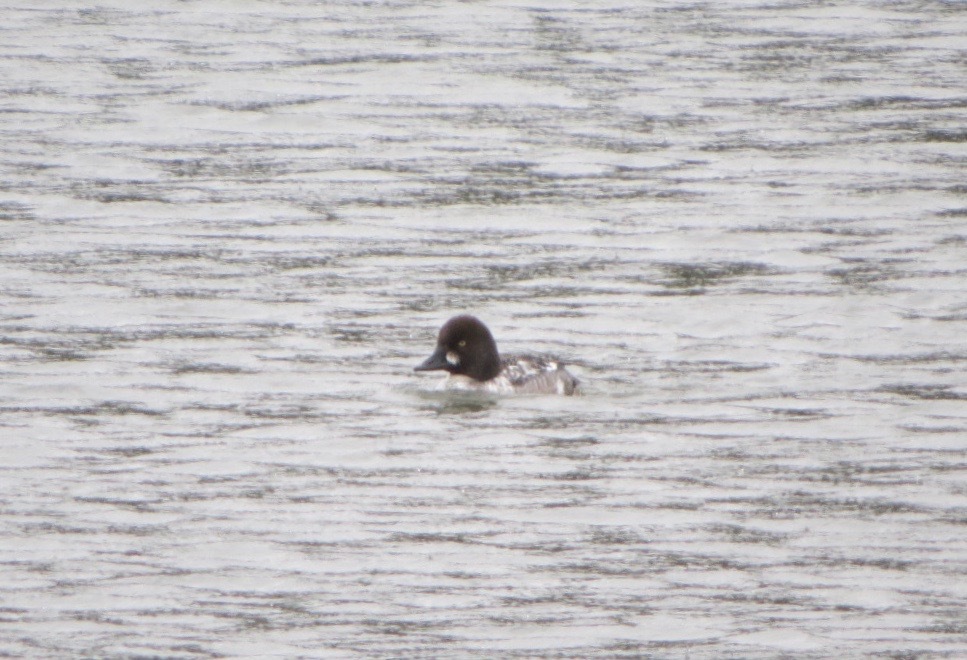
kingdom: Animalia
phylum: Chordata
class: Aves
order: Anseriformes
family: Anatidae
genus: Bucephala
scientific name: Bucephala clangula
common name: Common goldeneye
